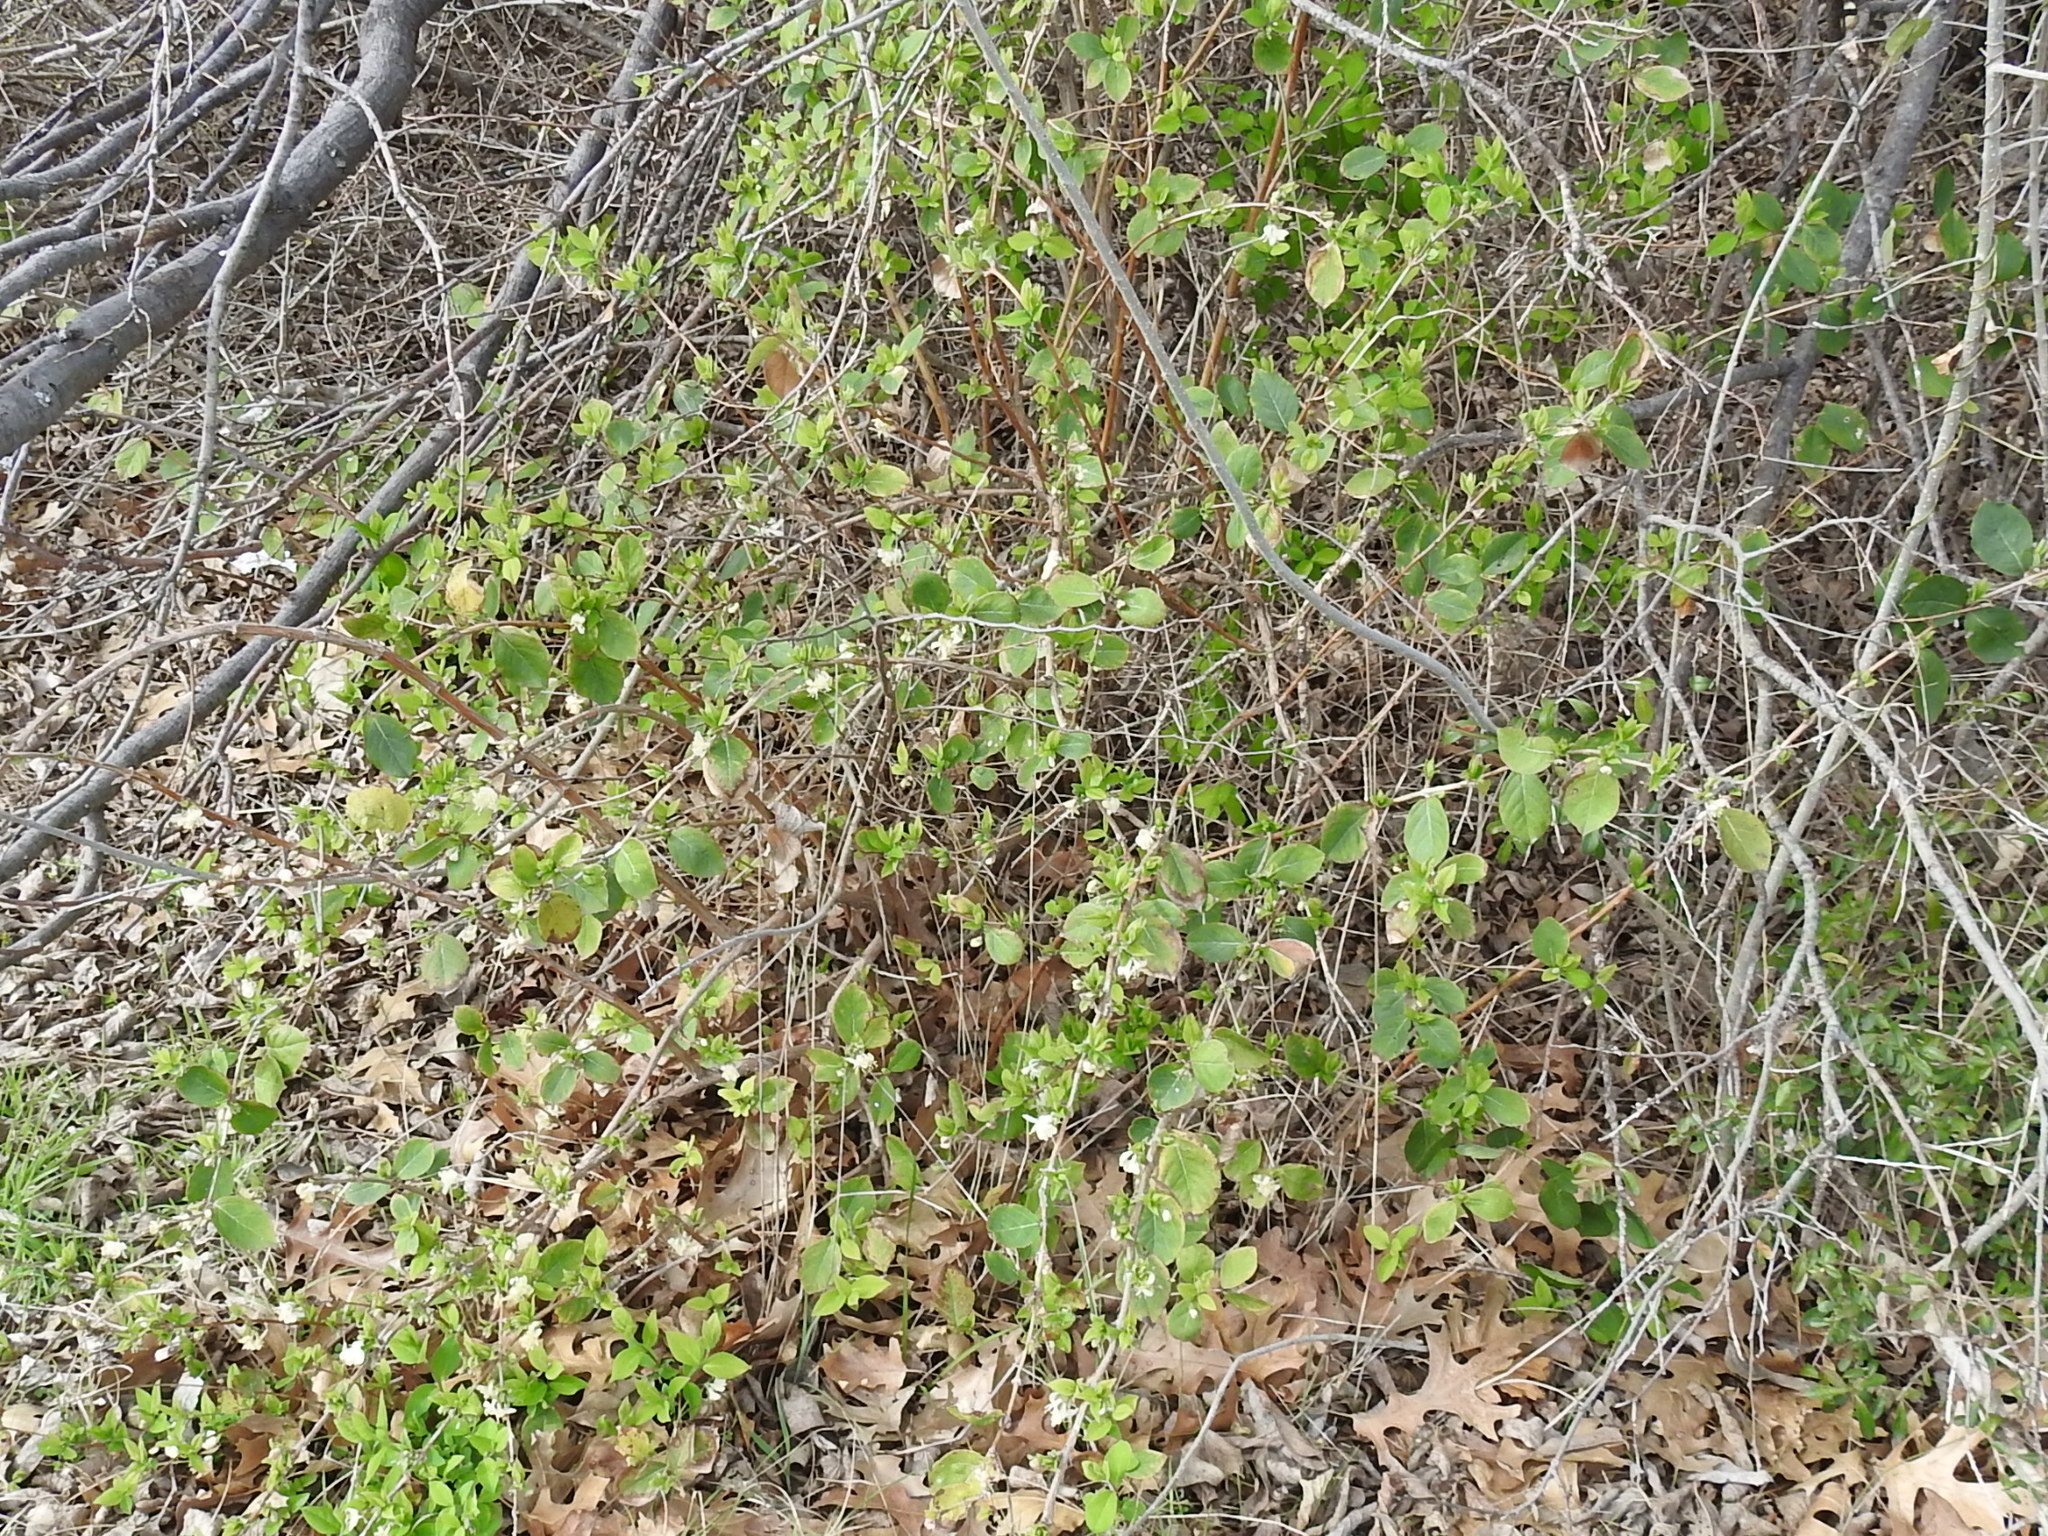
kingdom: Plantae
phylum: Tracheophyta
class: Magnoliopsida
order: Dipsacales
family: Caprifoliaceae
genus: Lonicera
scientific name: Lonicera fragrantissima
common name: Fragrant honeysuckle
